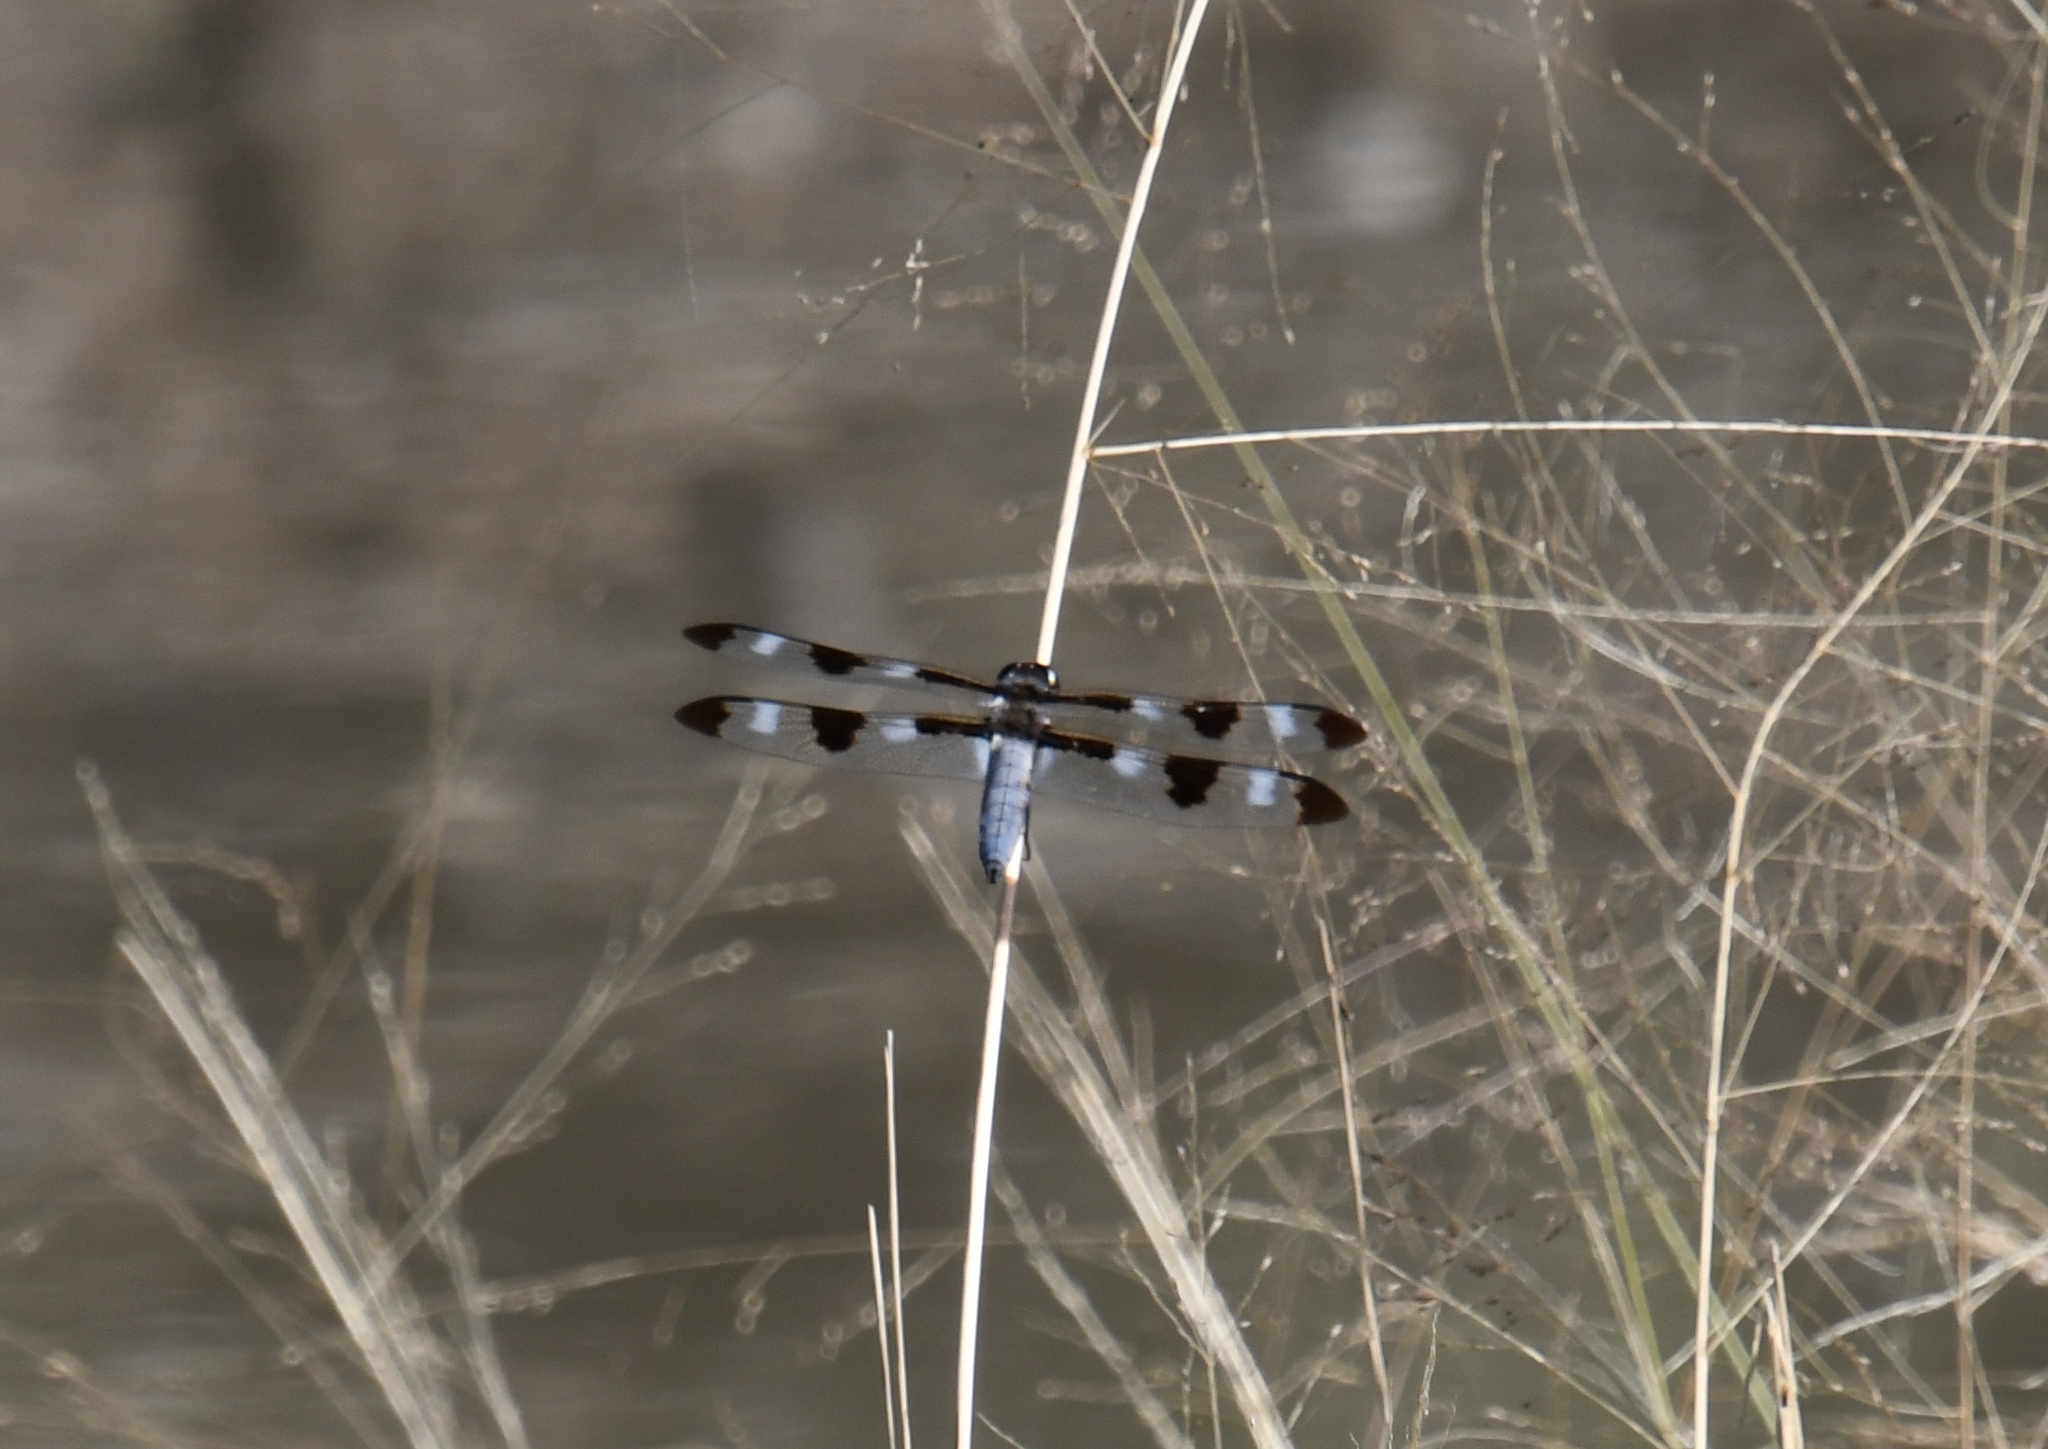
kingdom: Animalia
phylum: Arthropoda
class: Insecta
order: Odonata
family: Libellulidae
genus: Libellula
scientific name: Libellula pulchella
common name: Twelve-spotted skimmer
